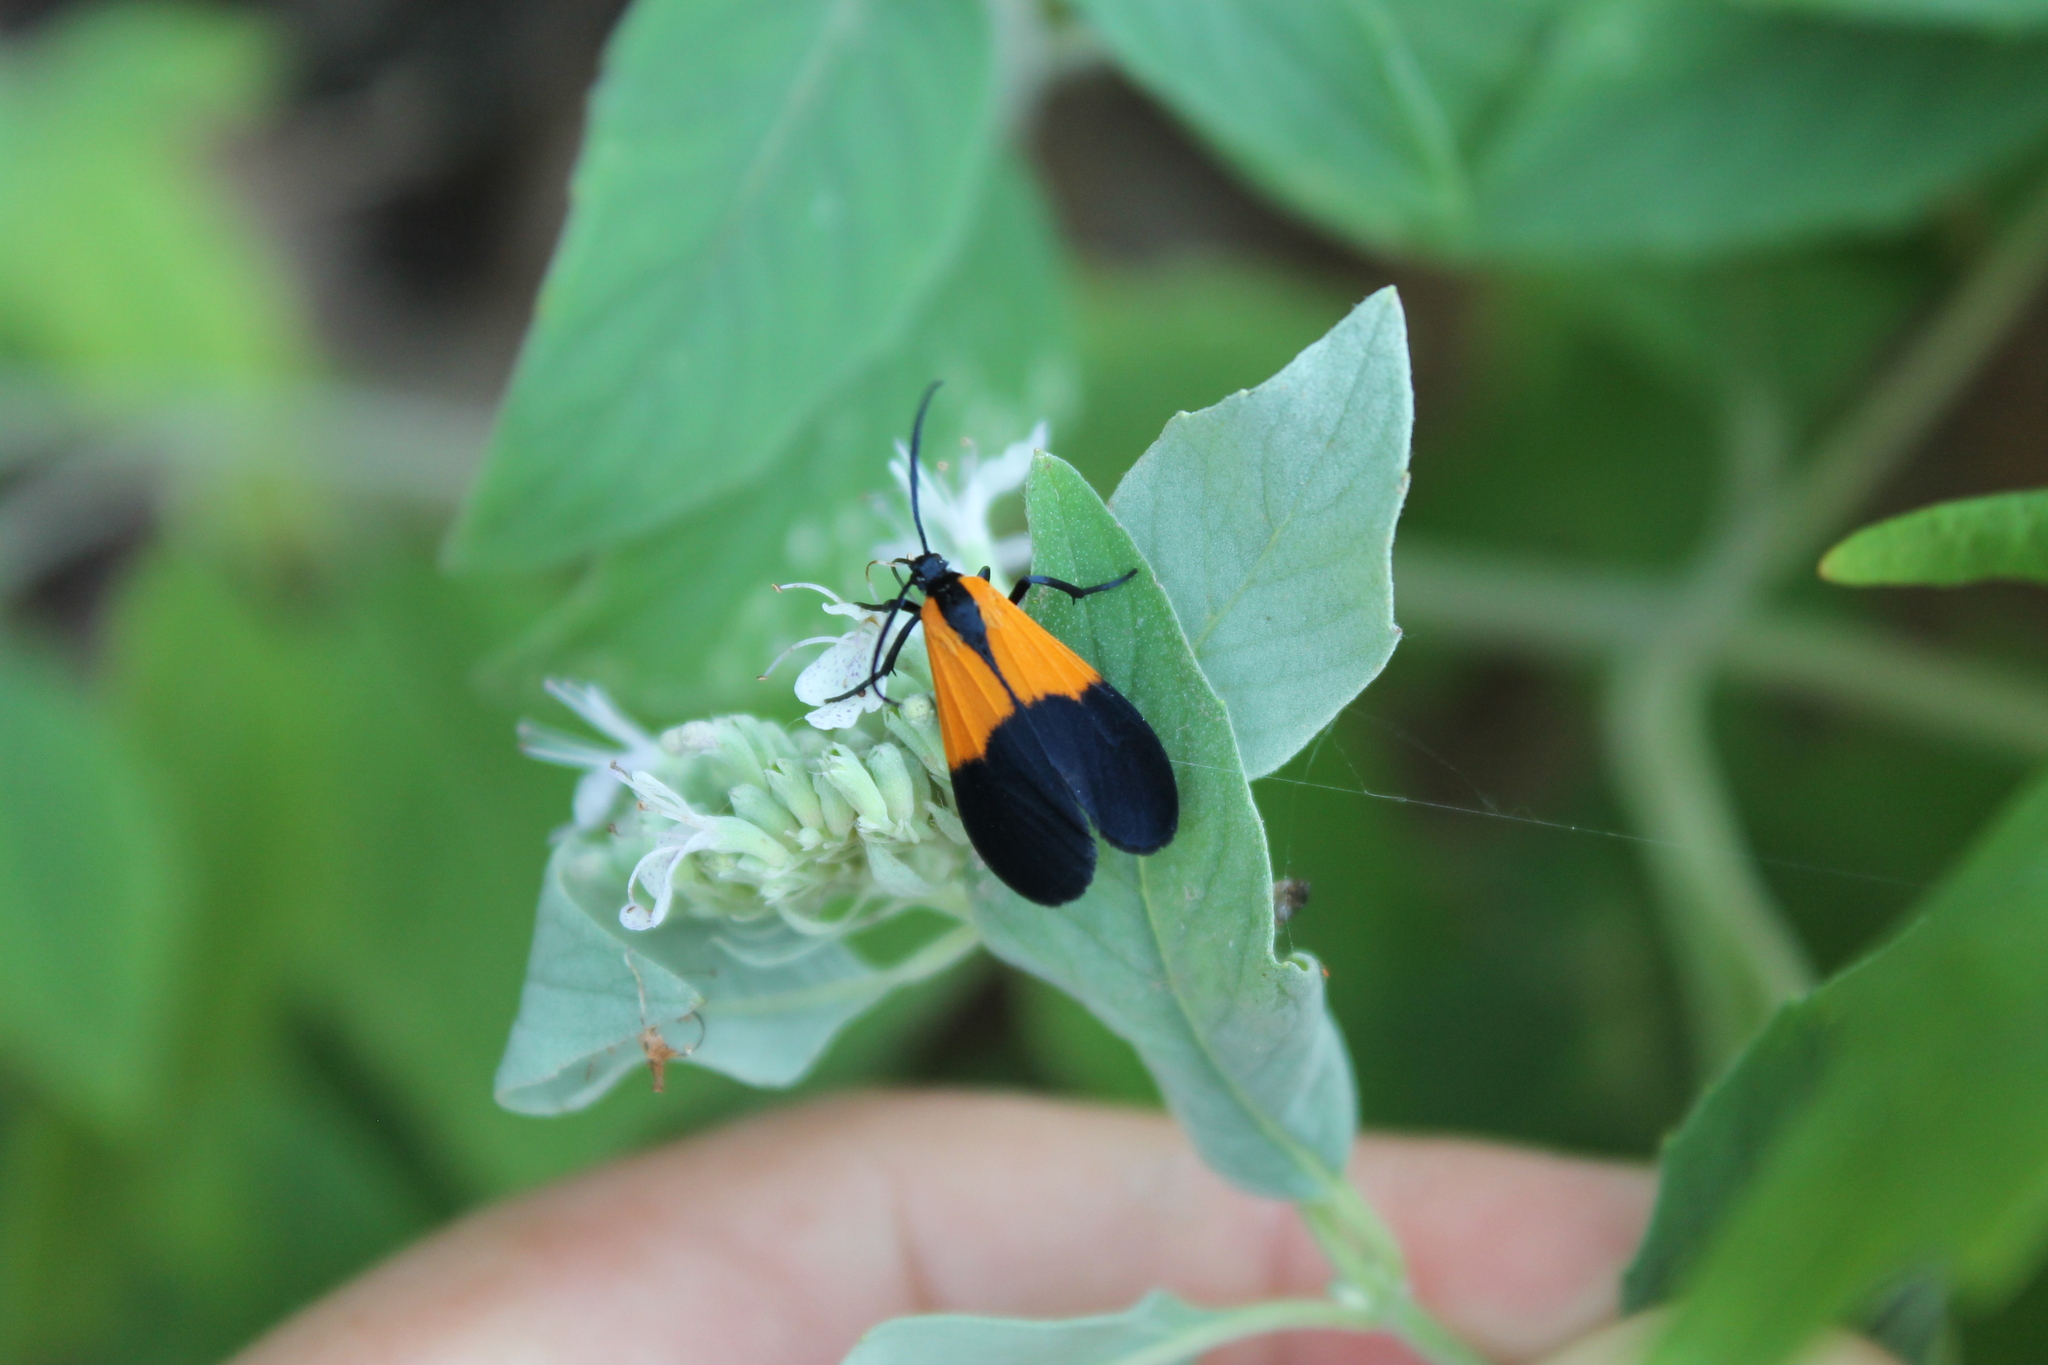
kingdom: Animalia
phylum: Arthropoda
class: Insecta
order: Lepidoptera
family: Erebidae
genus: Lycomorpha
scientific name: Lycomorpha pholus
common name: Black-and-yellow lichen moth
